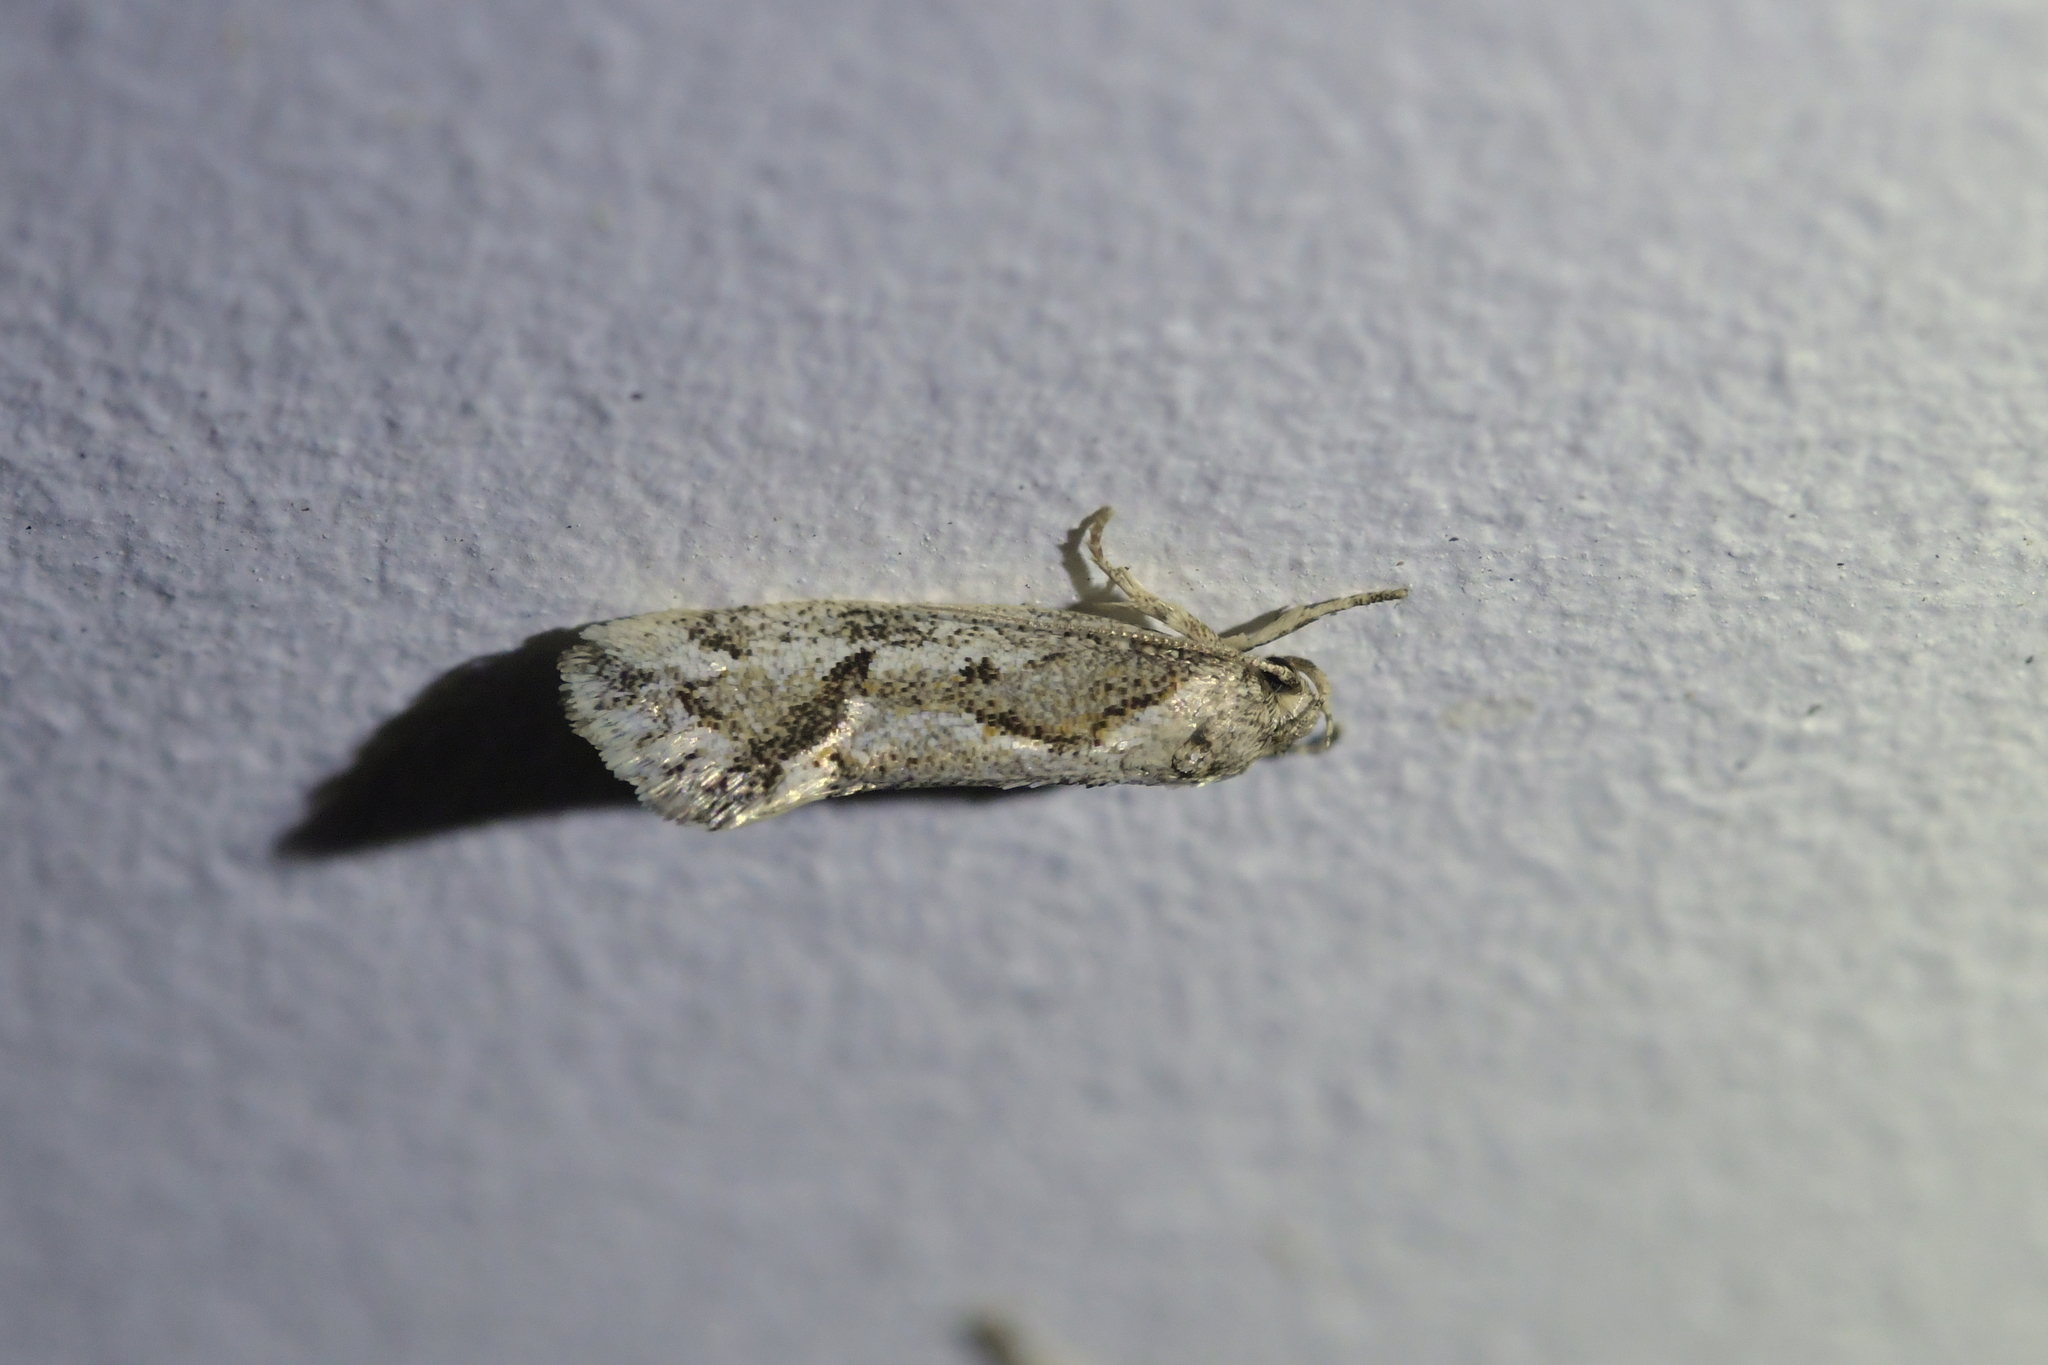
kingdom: Animalia
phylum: Arthropoda
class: Insecta
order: Lepidoptera
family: Oecophoridae
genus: Tingena
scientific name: Tingena hemimochla
